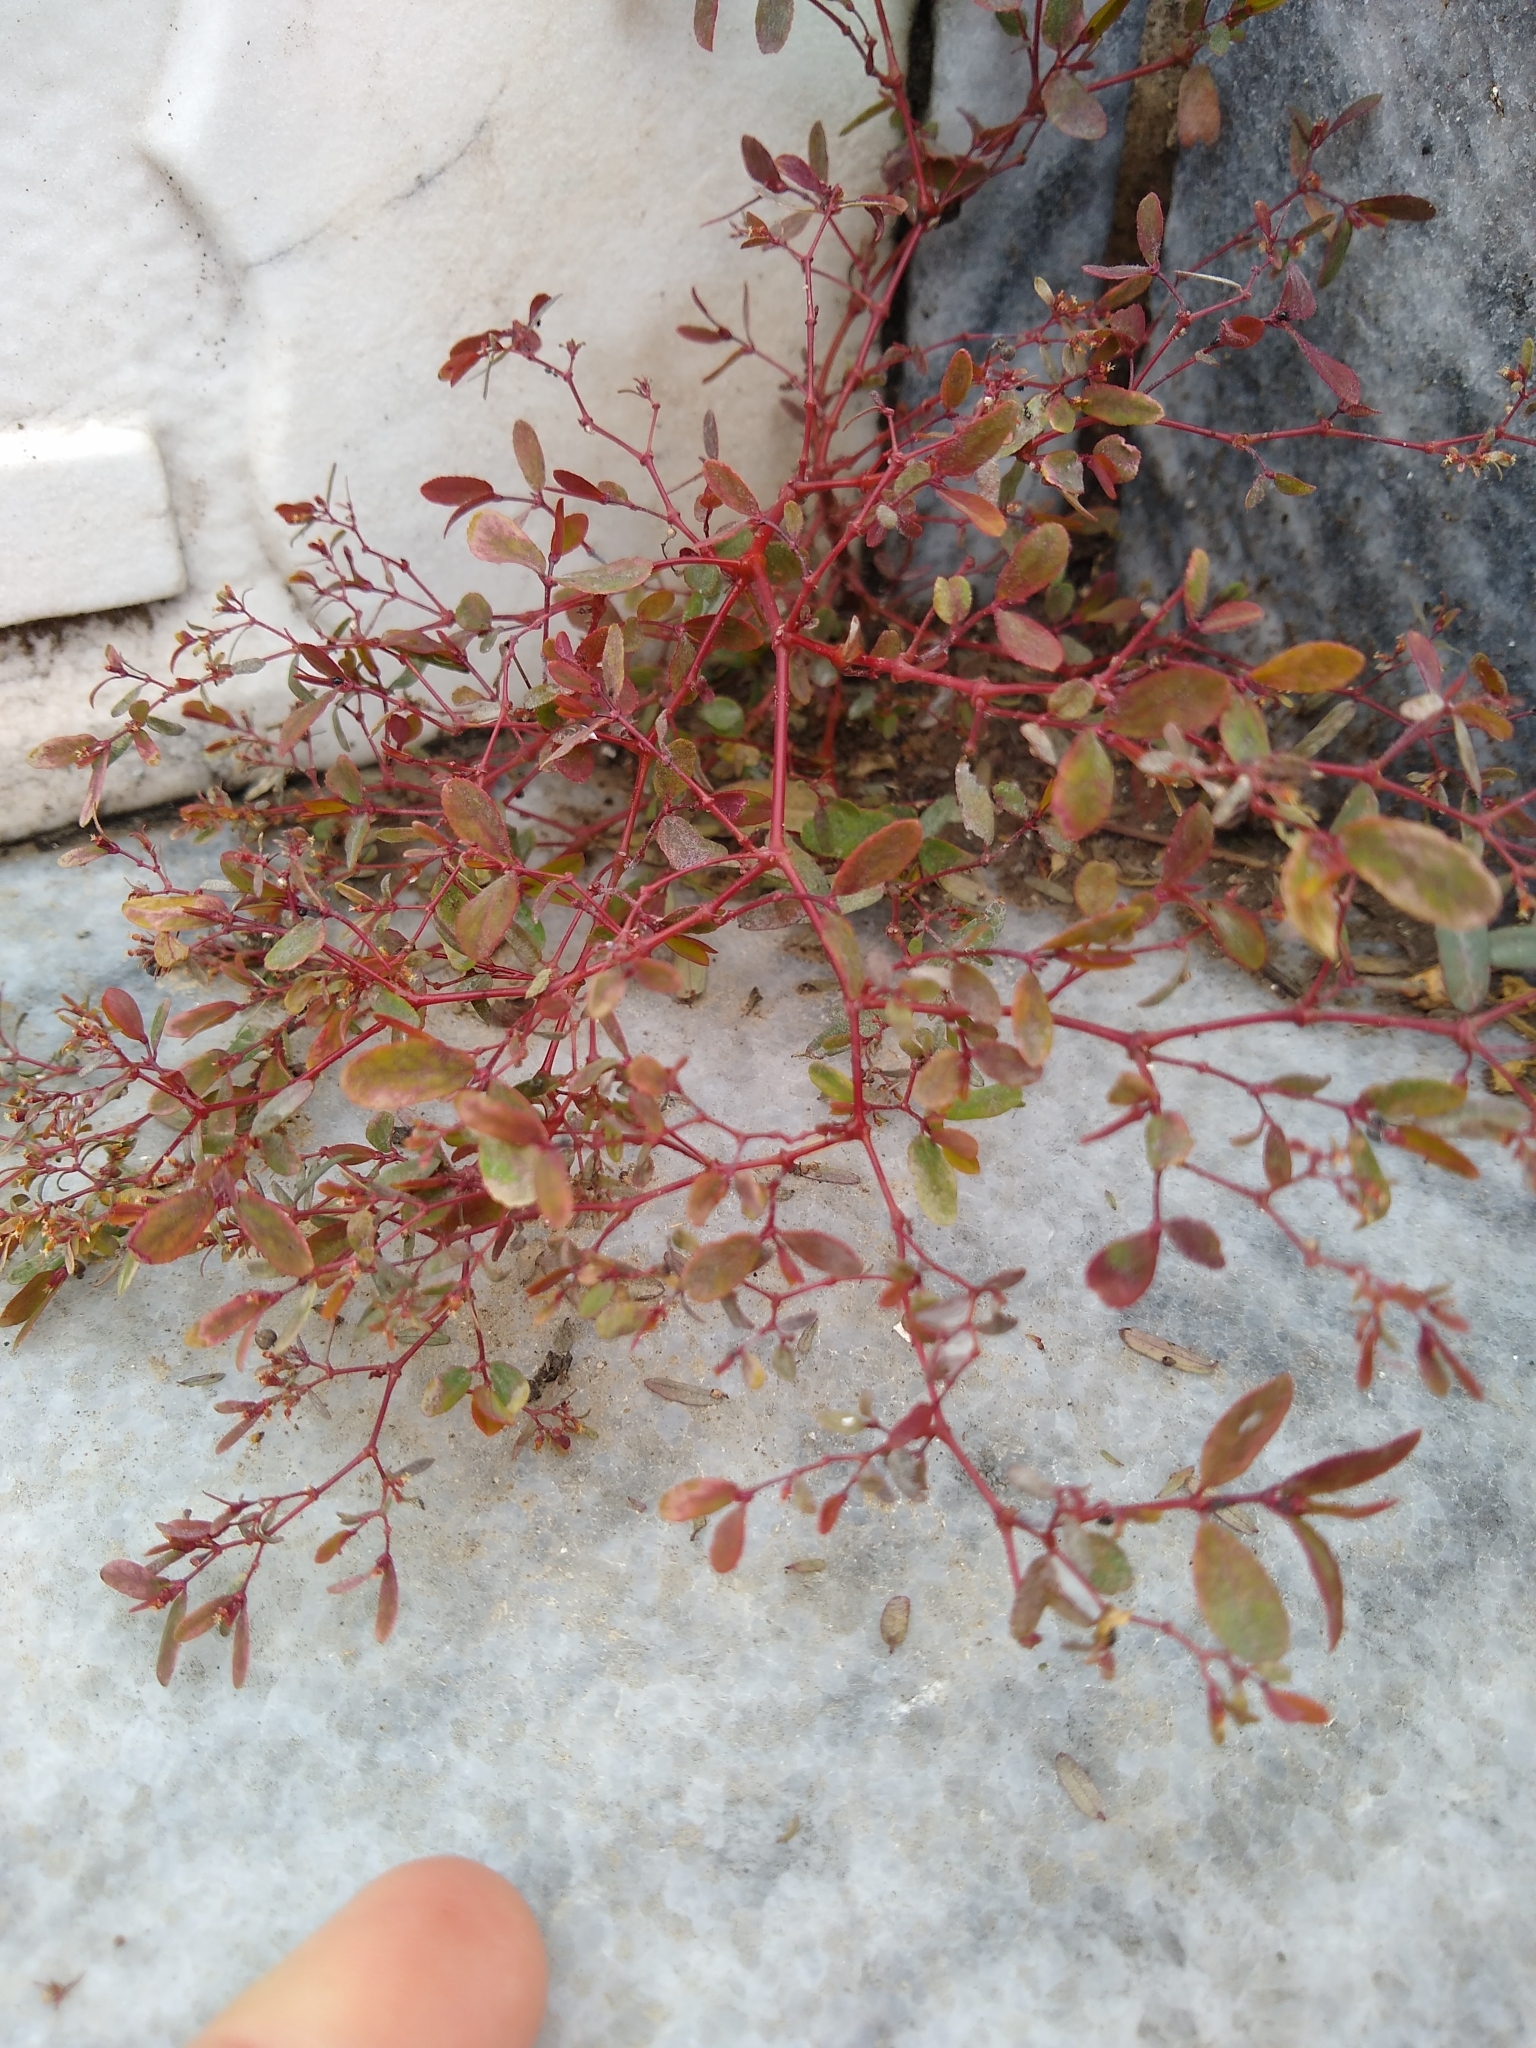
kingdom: Plantae
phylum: Tracheophyta
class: Magnoliopsida
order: Malpighiales
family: Euphorbiaceae
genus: Euphorbia
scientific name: Euphorbia hyssopifolia
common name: Hyssopleaf sandmat
